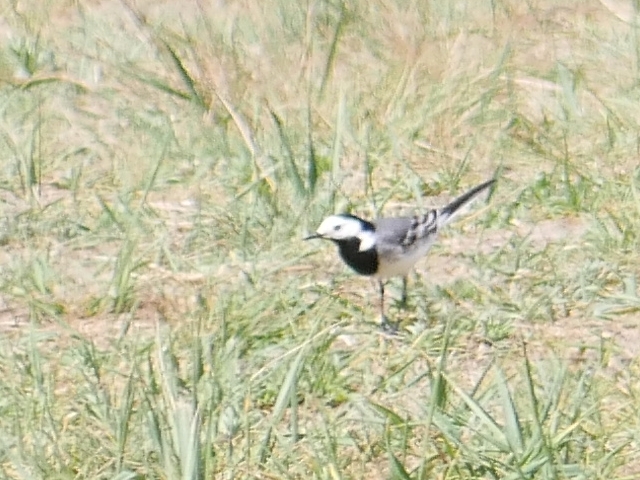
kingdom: Animalia
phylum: Chordata
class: Aves
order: Passeriformes
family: Motacillidae
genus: Motacilla
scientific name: Motacilla alba
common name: White wagtail
